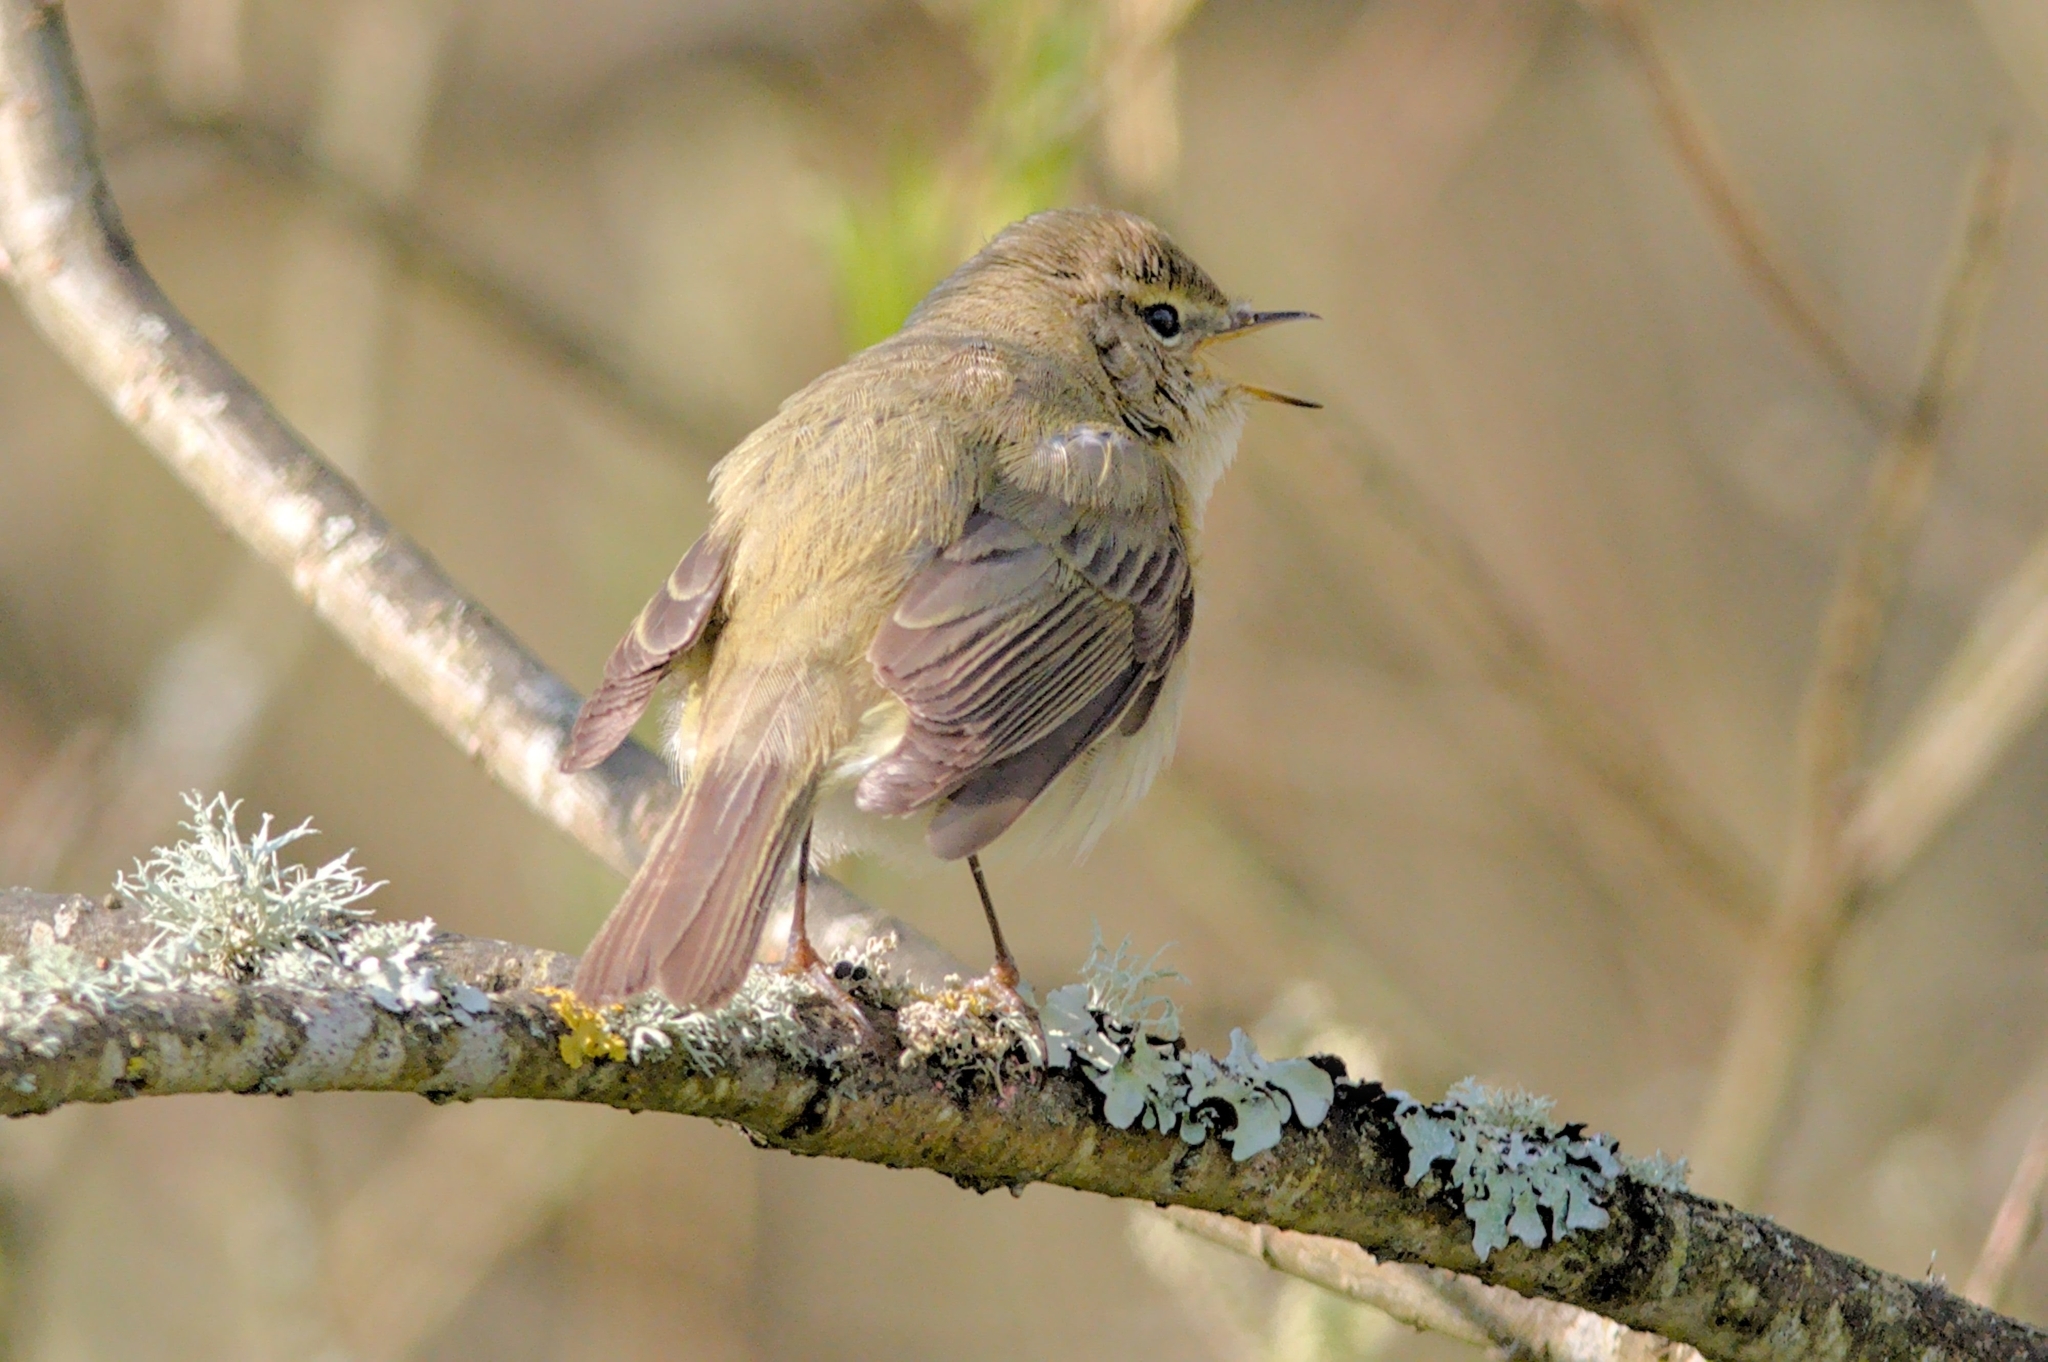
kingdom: Animalia
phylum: Chordata
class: Aves
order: Passeriformes
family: Phylloscopidae
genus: Phylloscopus
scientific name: Phylloscopus trochilus
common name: Willow warbler
